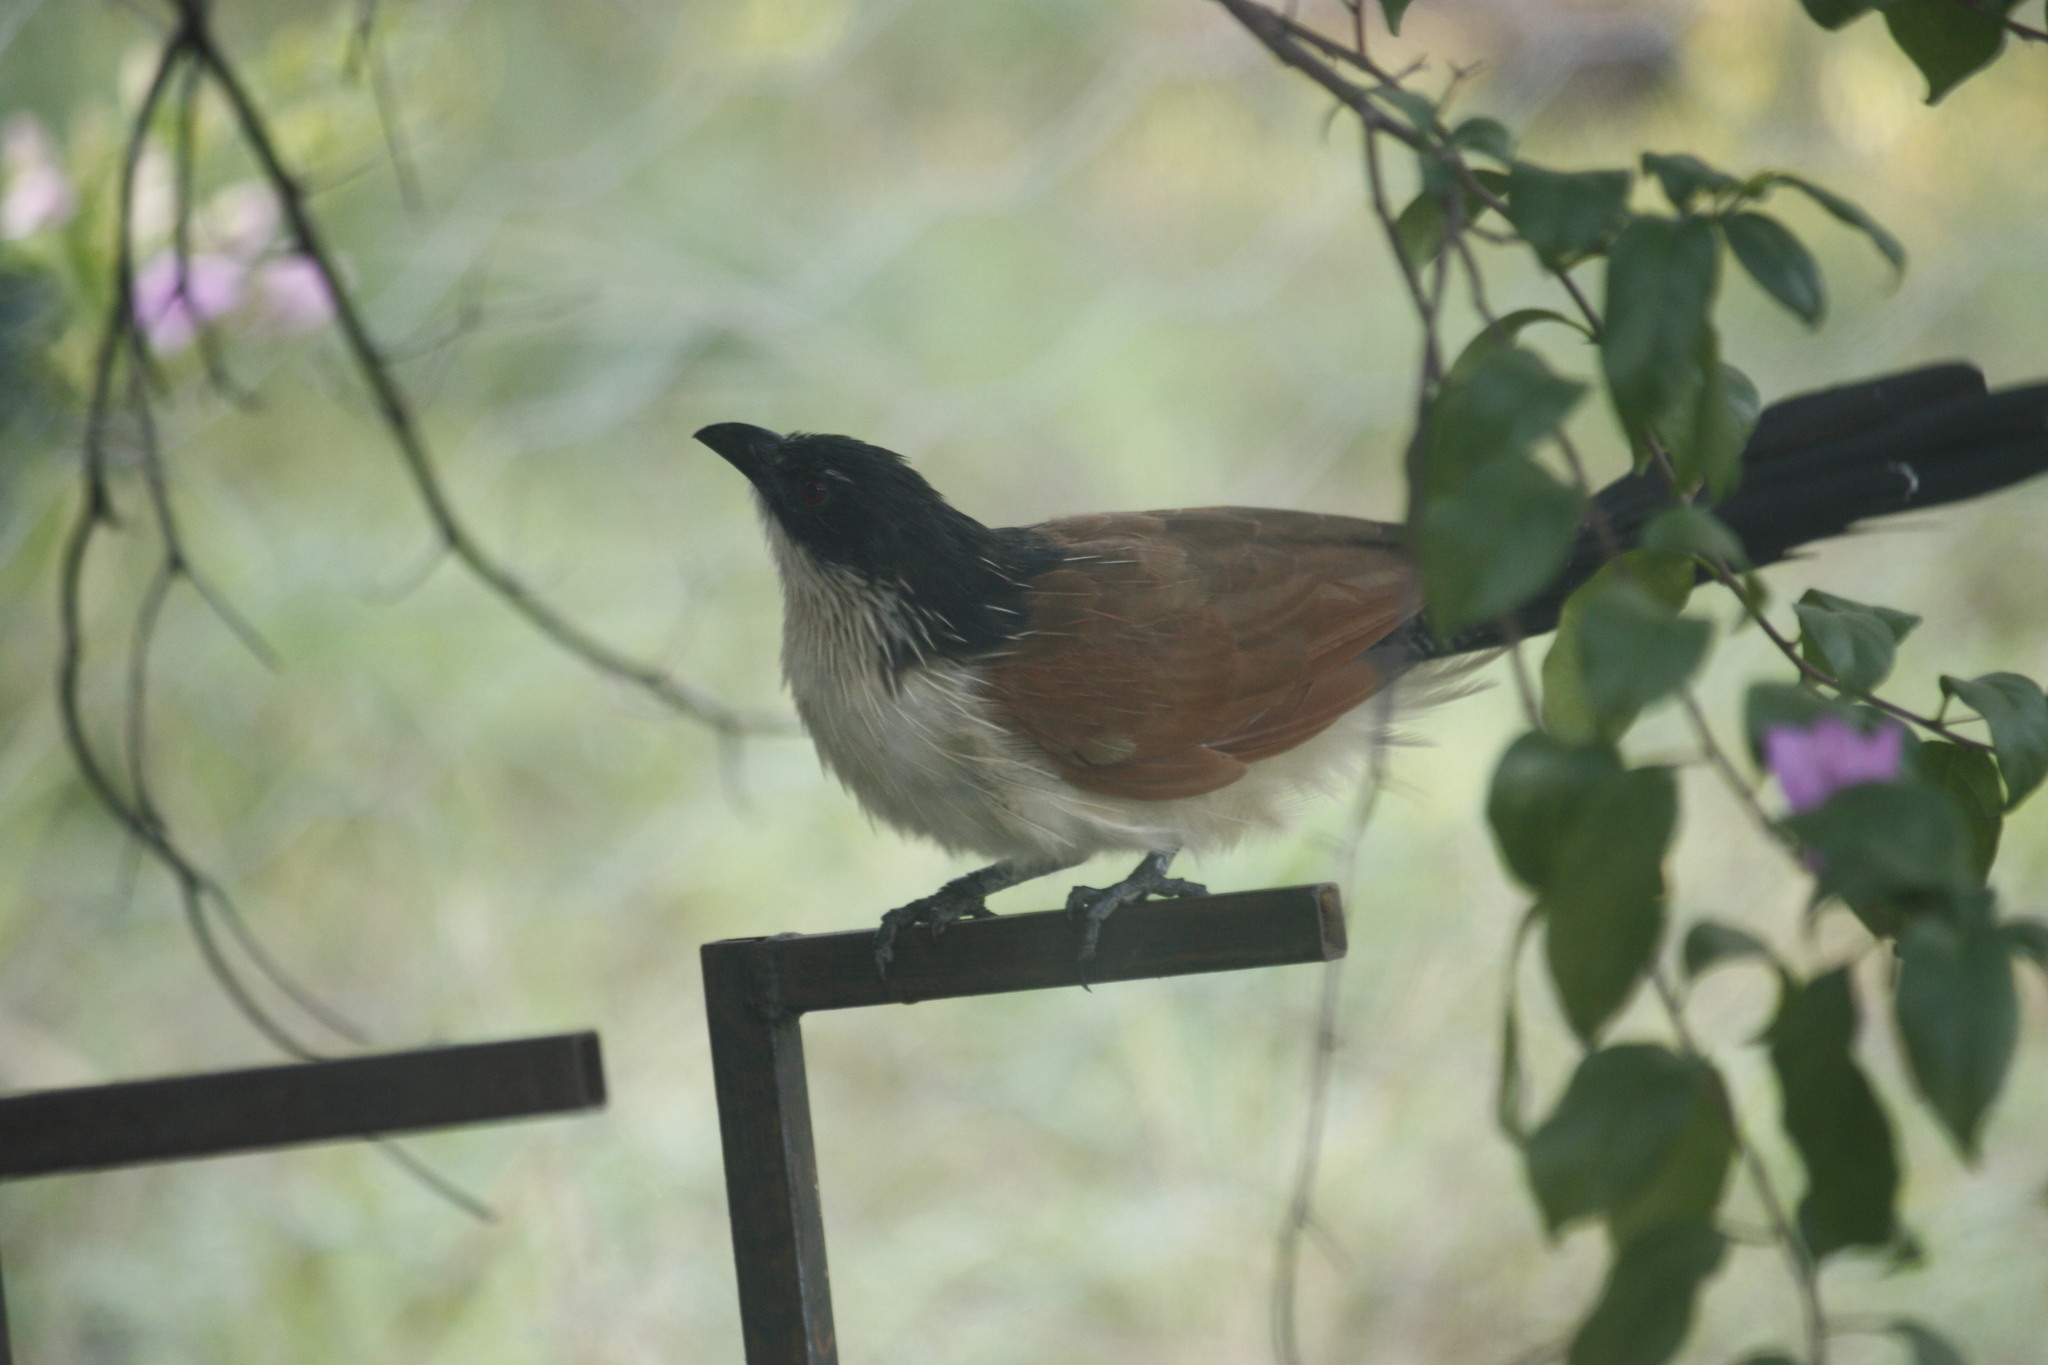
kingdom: Animalia
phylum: Chordata
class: Aves
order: Cuculiformes
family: Cuculidae
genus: Centropus
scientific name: Centropus superciliosus
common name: White-browed coucal
